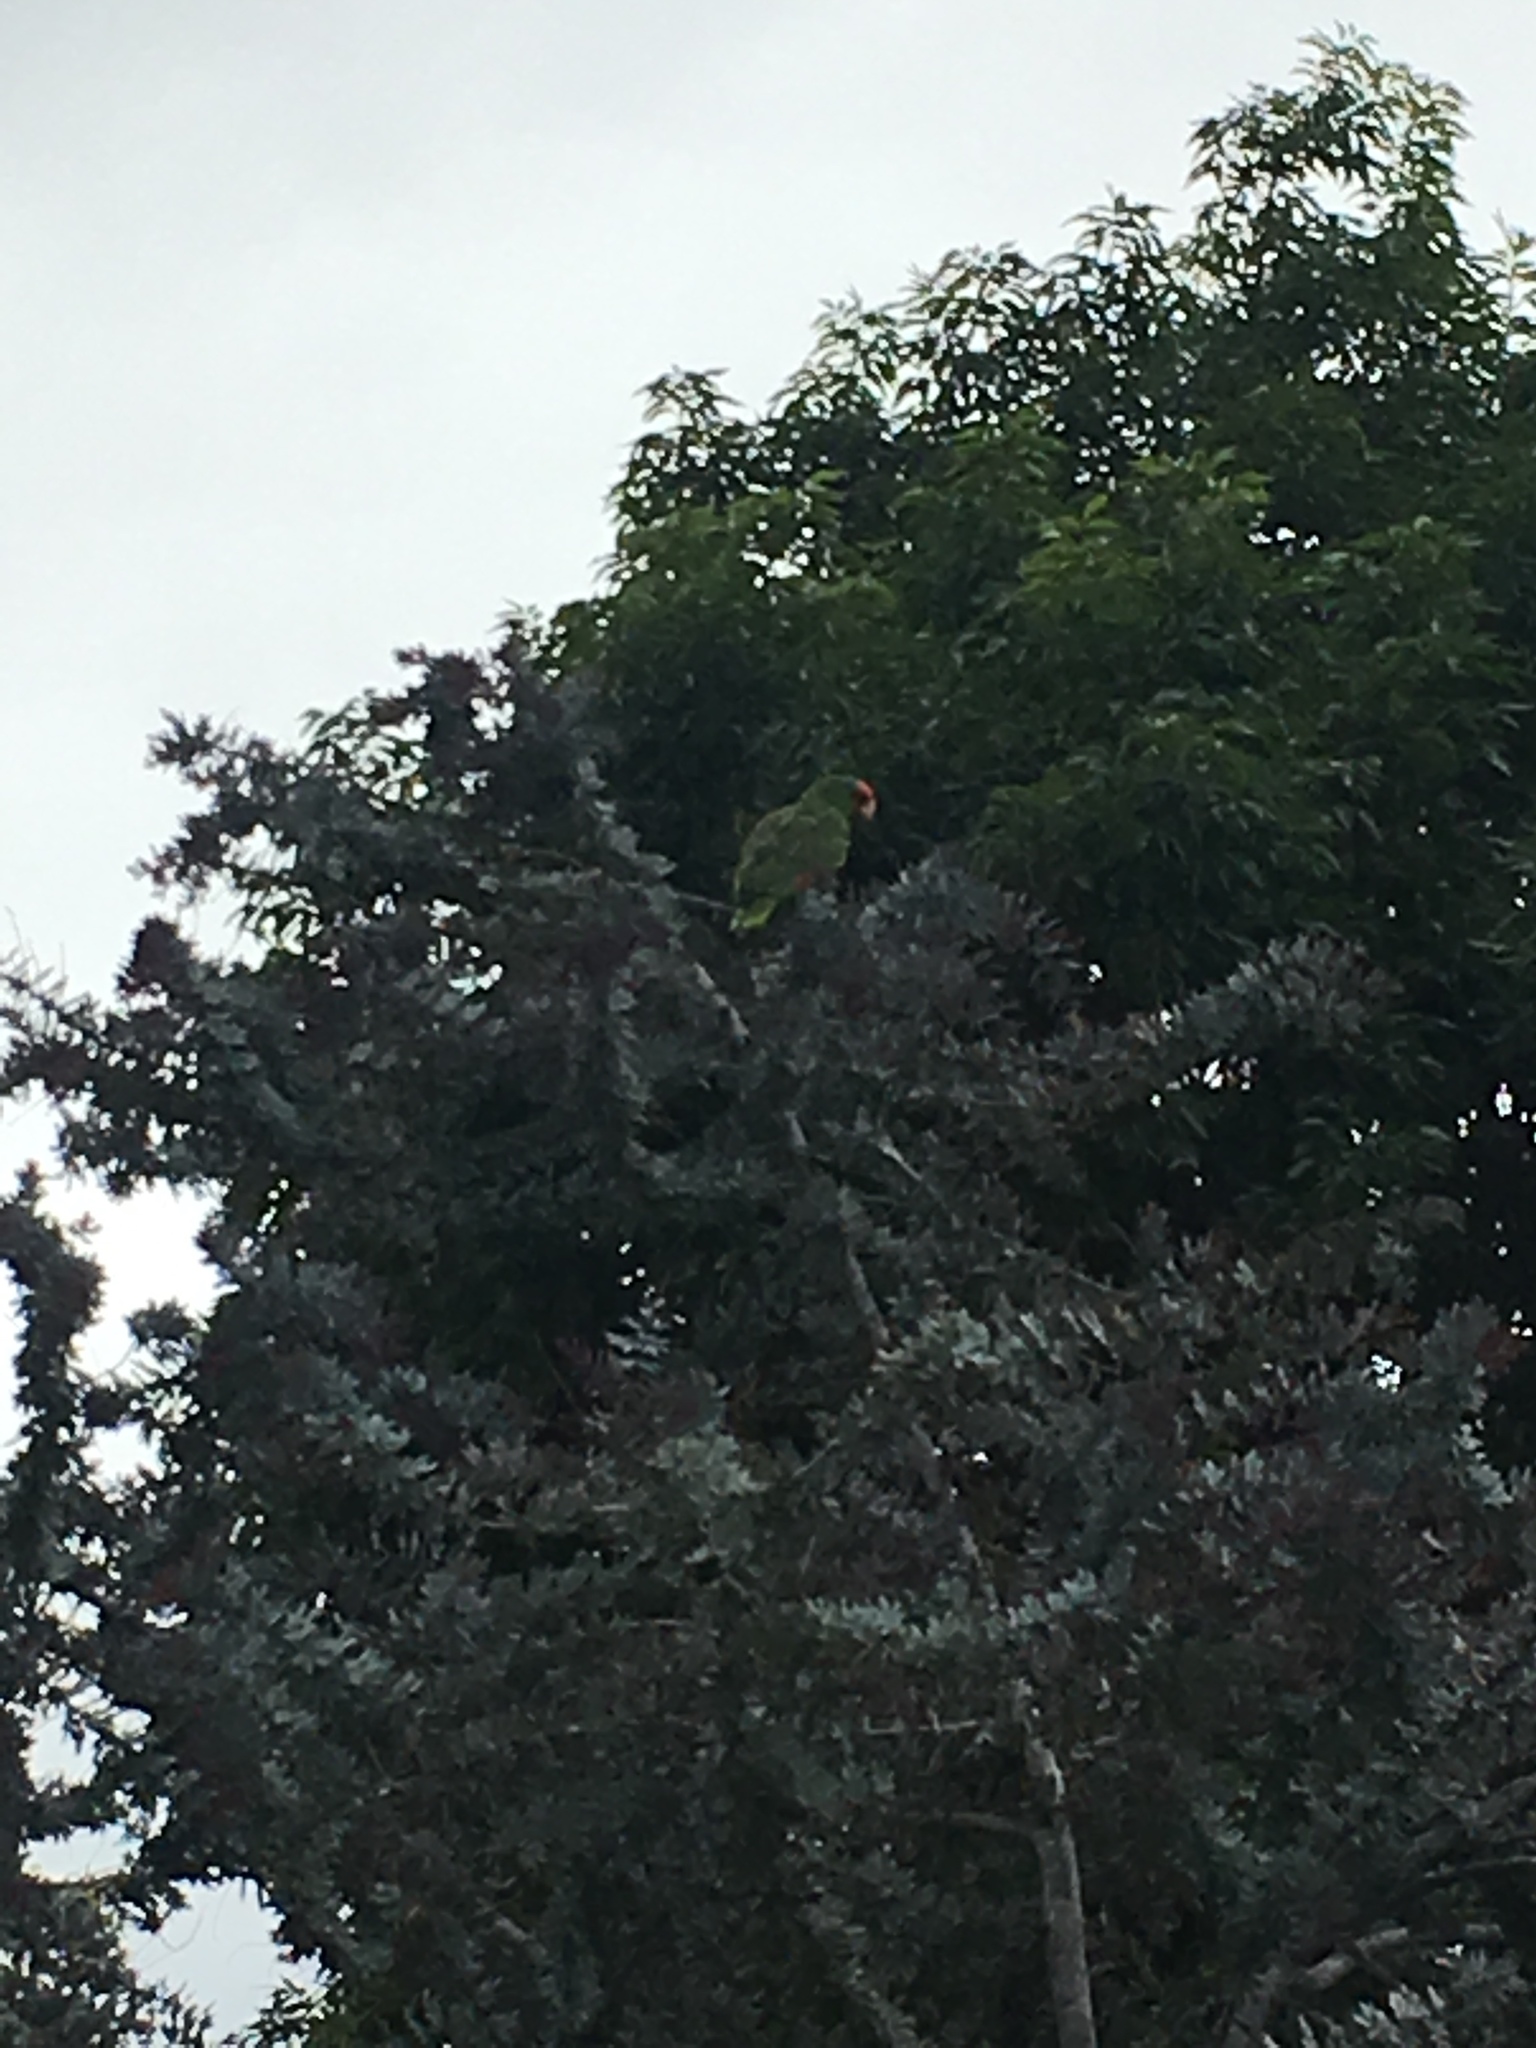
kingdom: Animalia
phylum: Chordata
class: Aves
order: Psittaciformes
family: Psittacidae
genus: Amazona
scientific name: Amazona viridigenalis
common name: Red-crowned amazon
